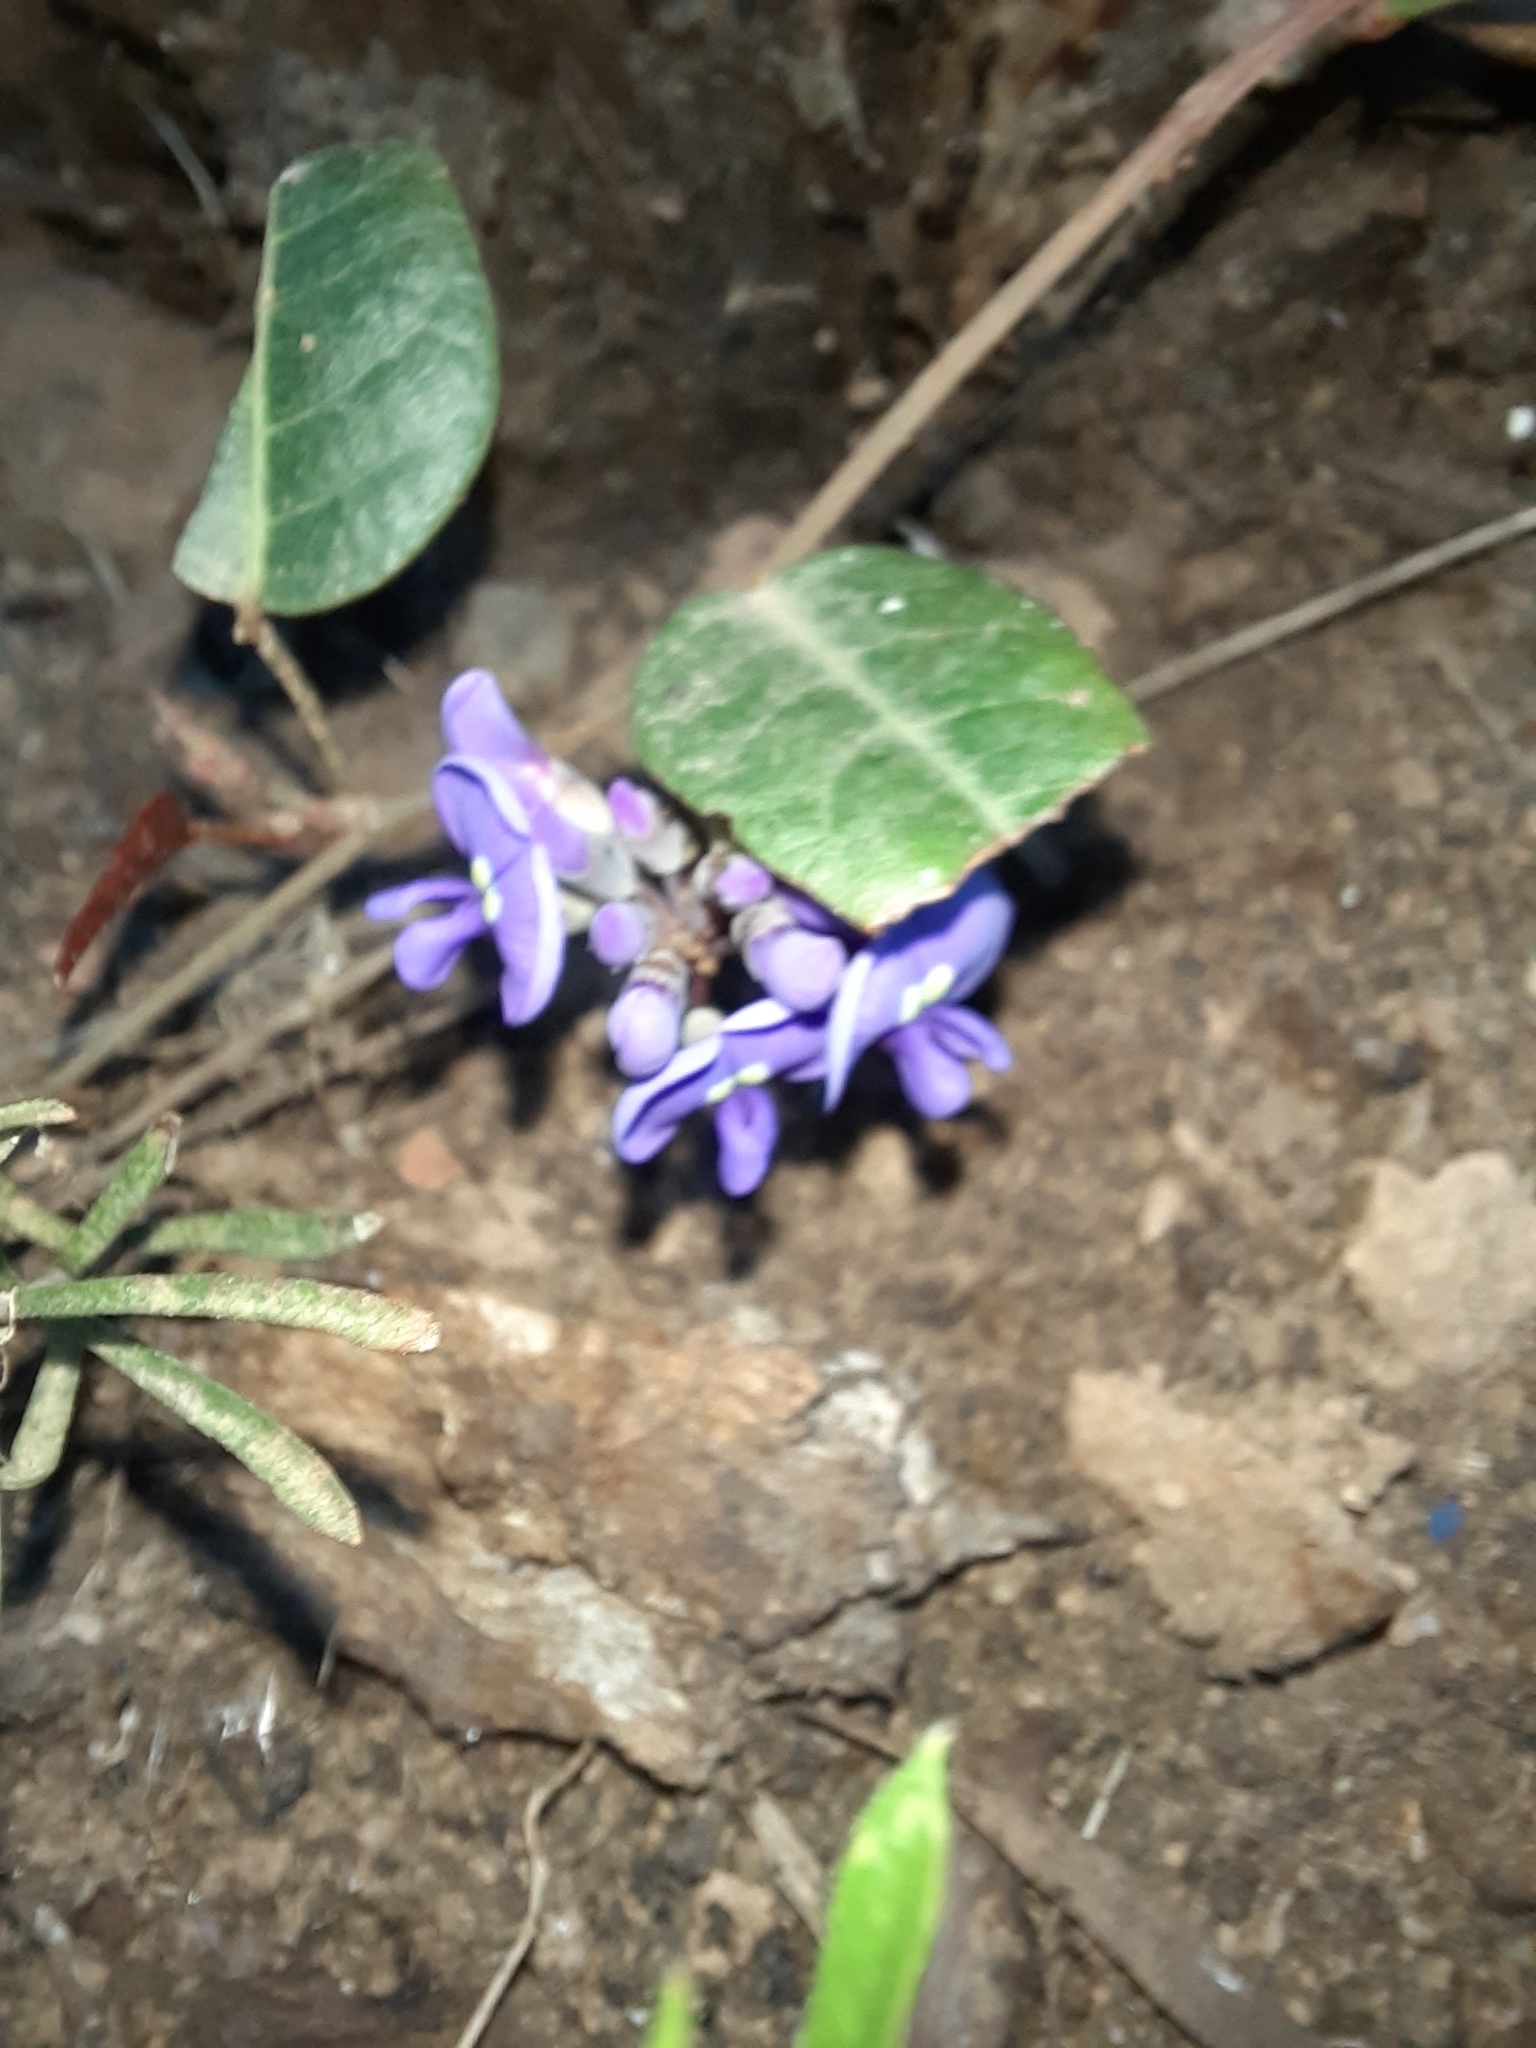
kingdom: Plantae
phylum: Tracheophyta
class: Magnoliopsida
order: Fabales
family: Fabaceae
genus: Hardenbergia
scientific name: Hardenbergia violacea
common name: Coral-pea
